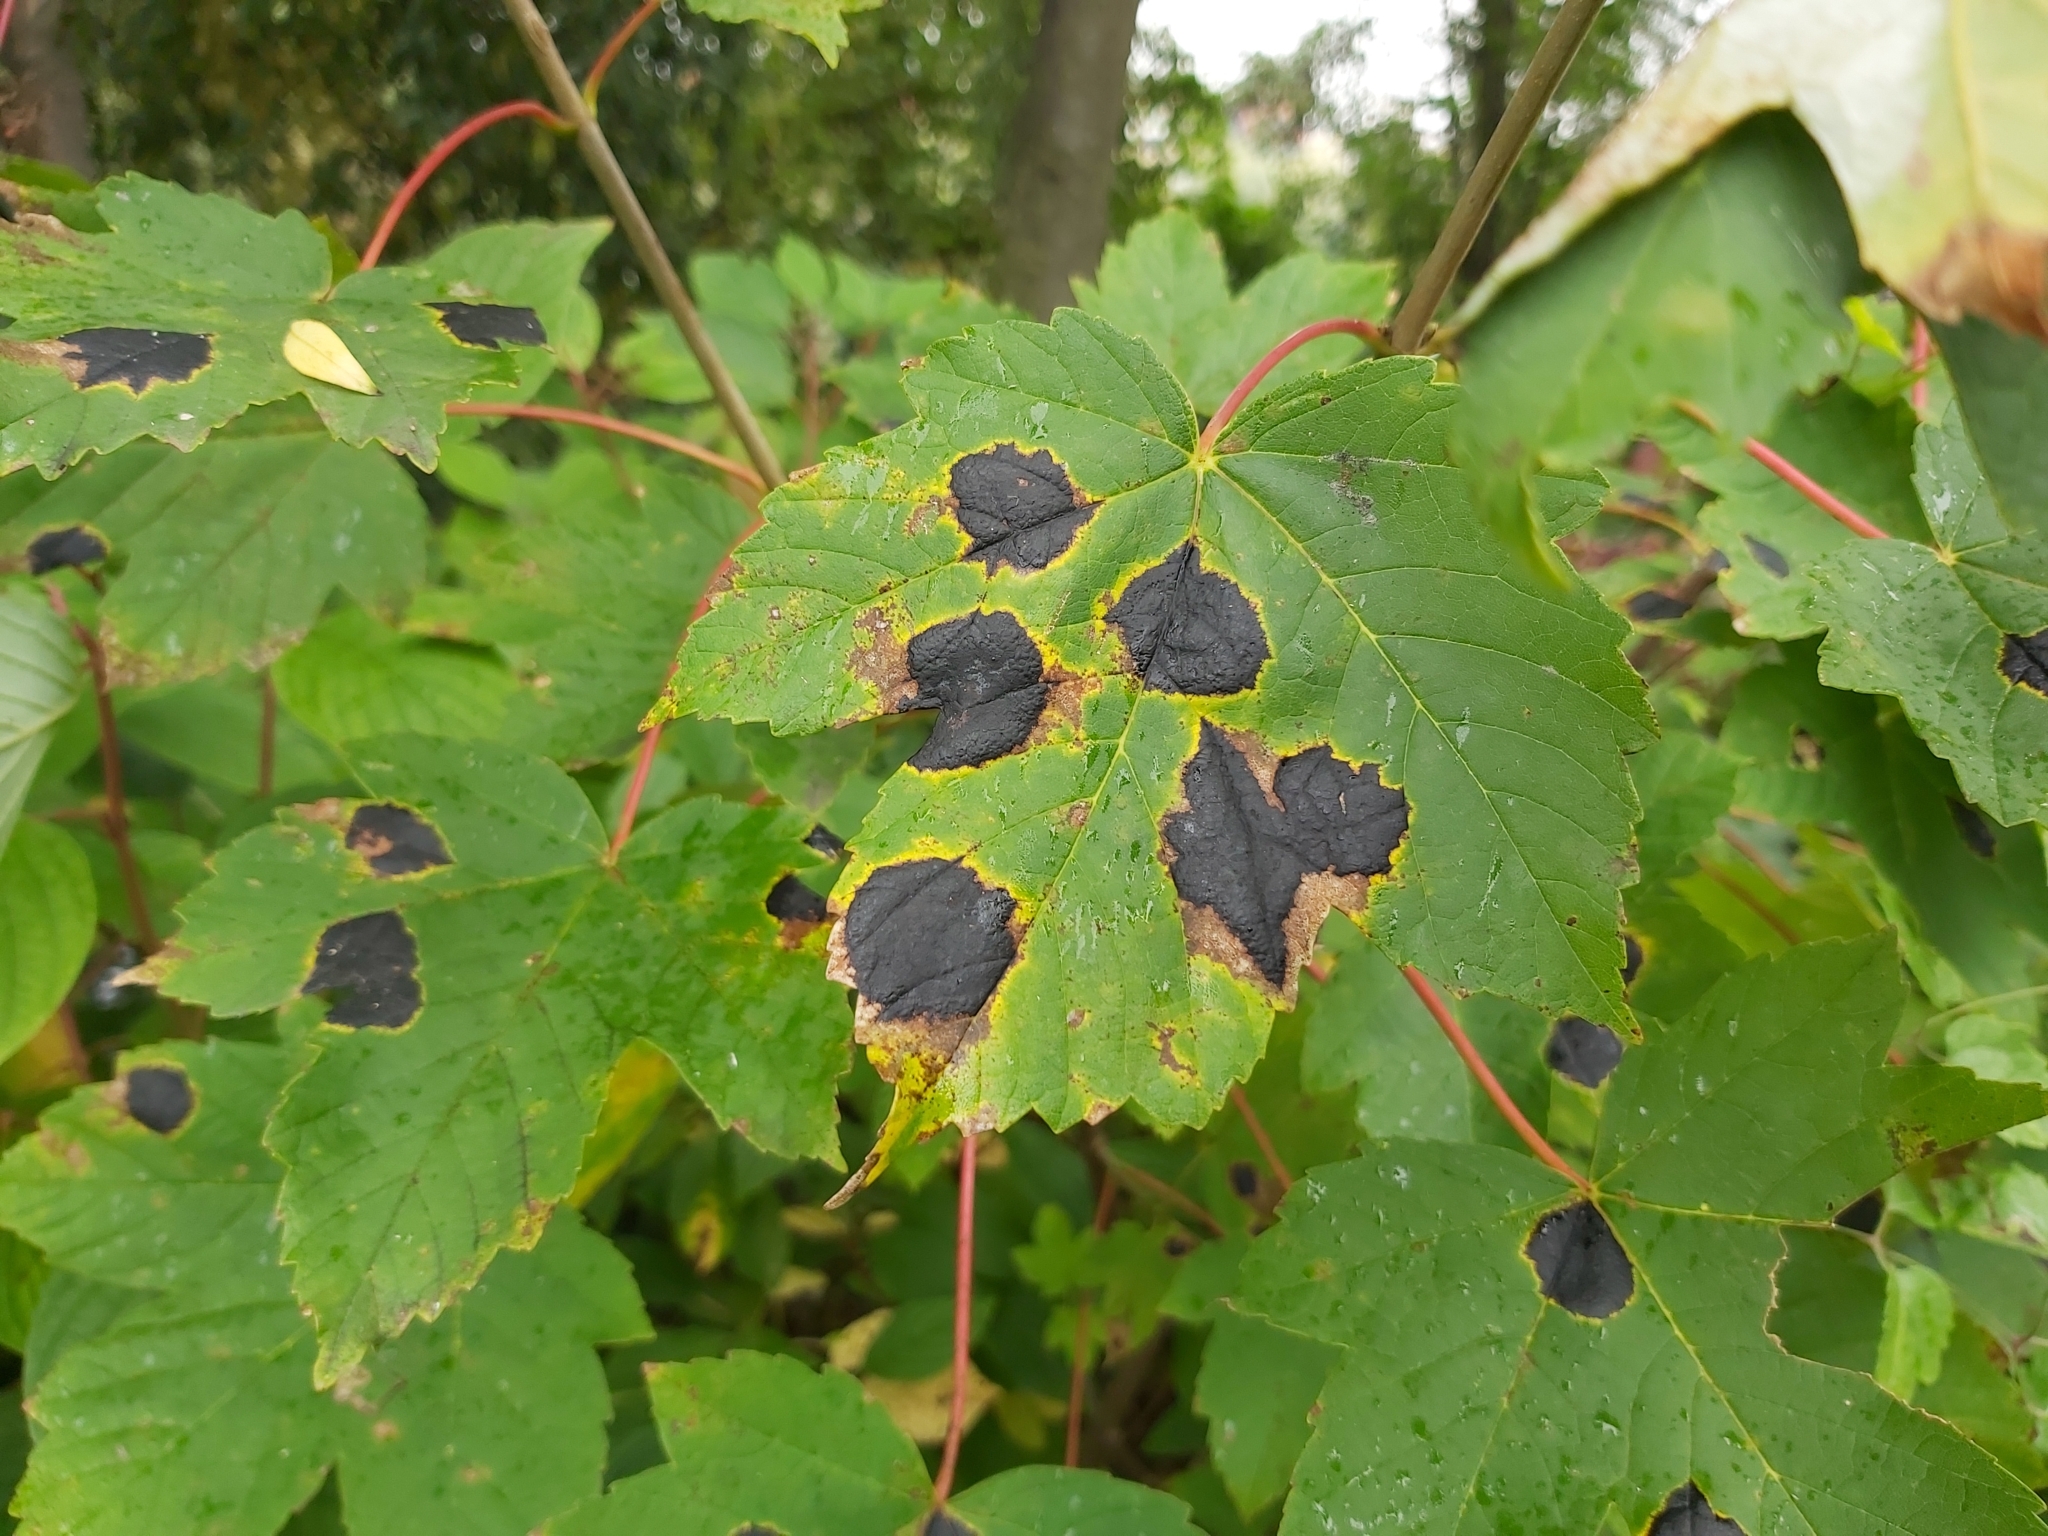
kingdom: Fungi
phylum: Ascomycota
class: Leotiomycetes
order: Rhytismatales
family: Rhytismataceae
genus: Rhytisma
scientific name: Rhytisma acerinum
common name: European tar spot
